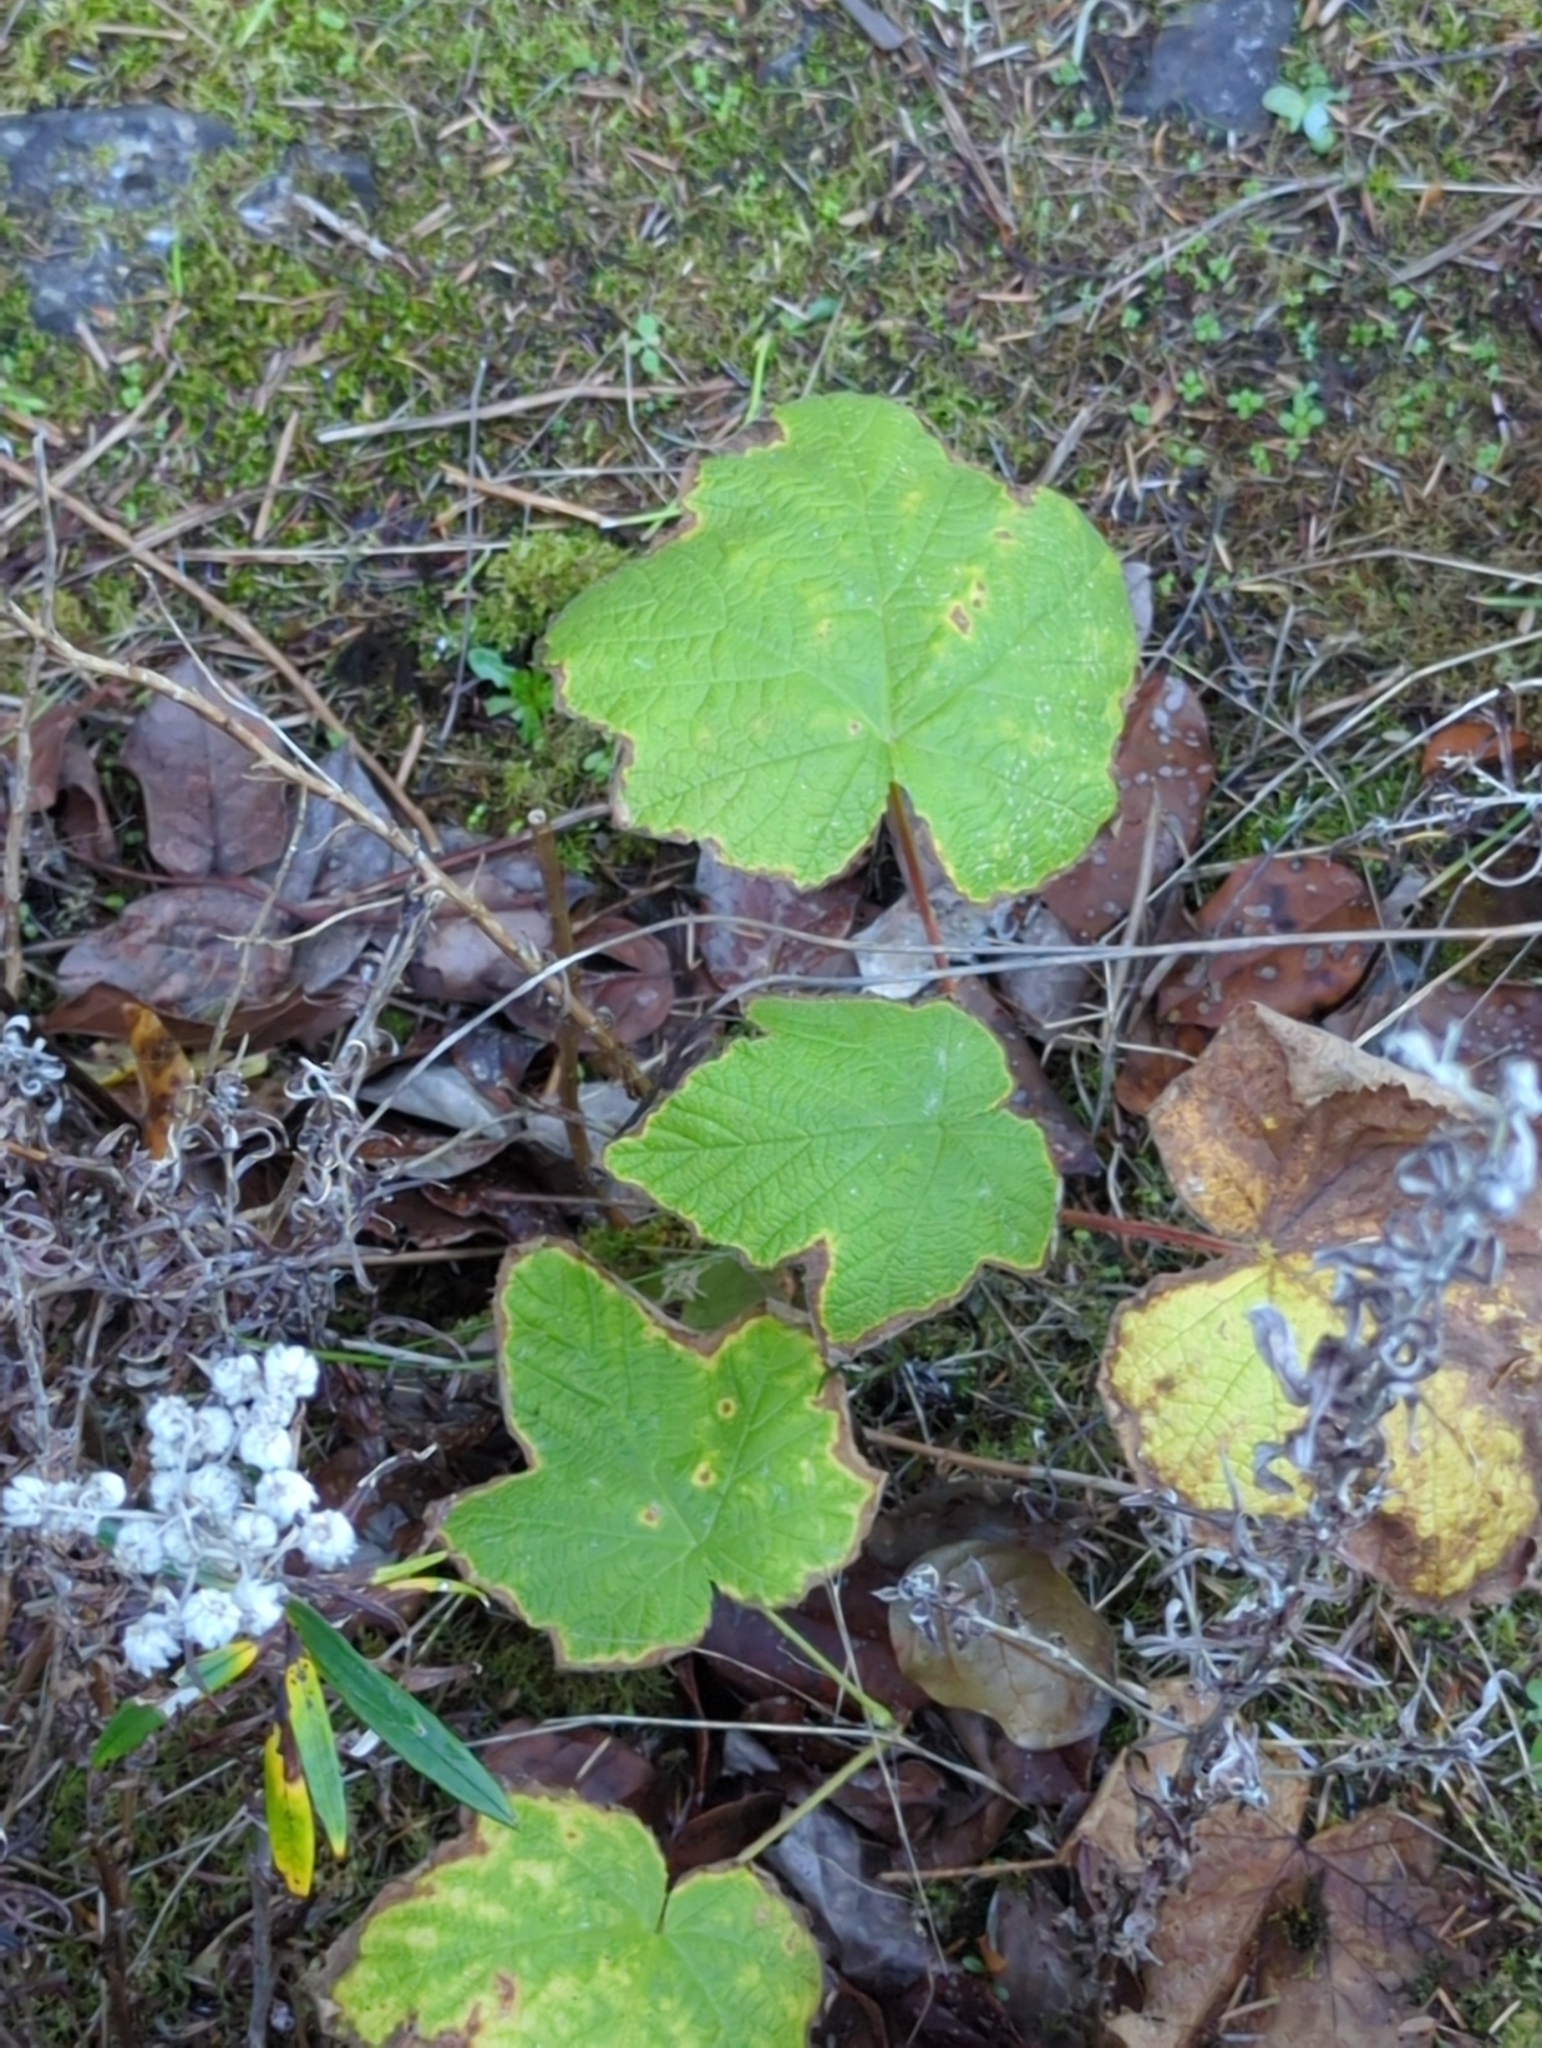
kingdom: Plantae
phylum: Tracheophyta
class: Magnoliopsida
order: Rosales
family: Rosaceae
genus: Rubus
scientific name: Rubus parviflorus
